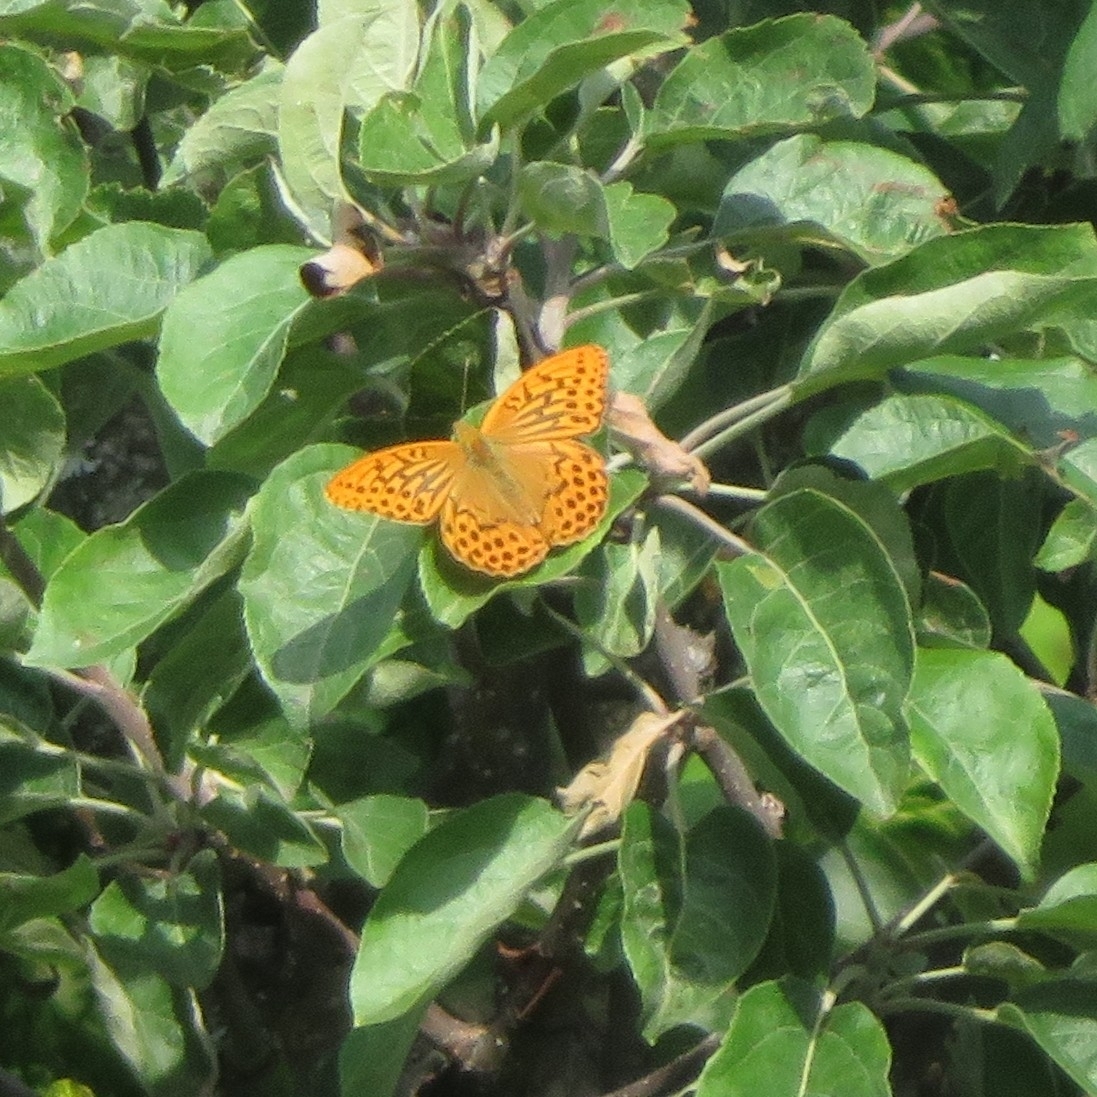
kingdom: Animalia
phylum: Arthropoda
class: Insecta
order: Lepidoptera
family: Nymphalidae
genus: Argynnis
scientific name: Argynnis paphia
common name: Silver-washed fritillary
